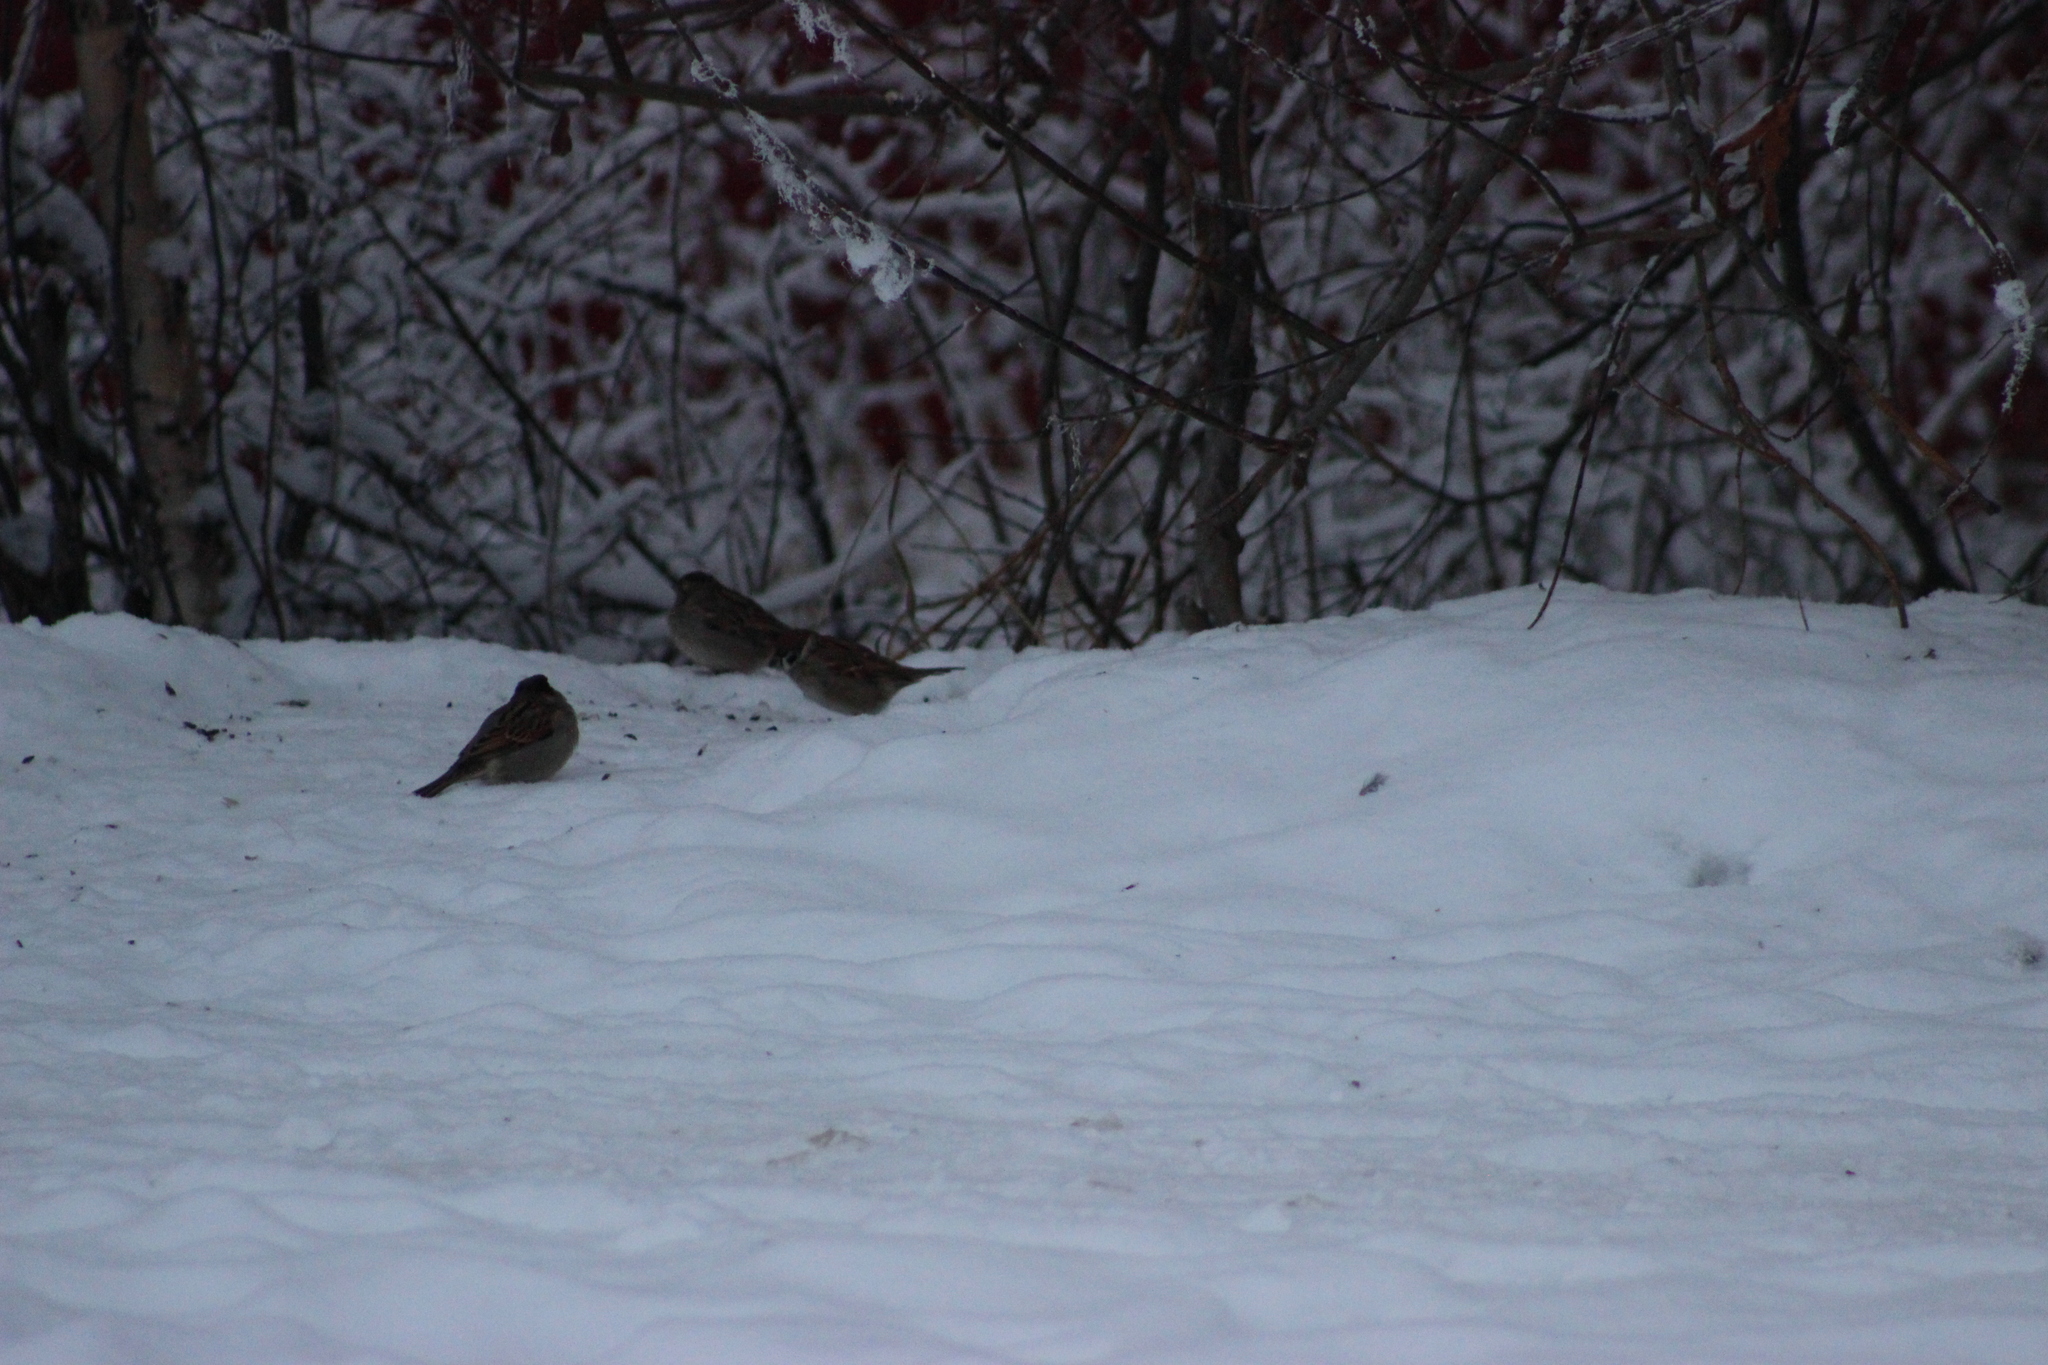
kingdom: Animalia
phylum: Chordata
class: Aves
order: Passeriformes
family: Passeridae
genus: Passer
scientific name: Passer montanus
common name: Eurasian tree sparrow
